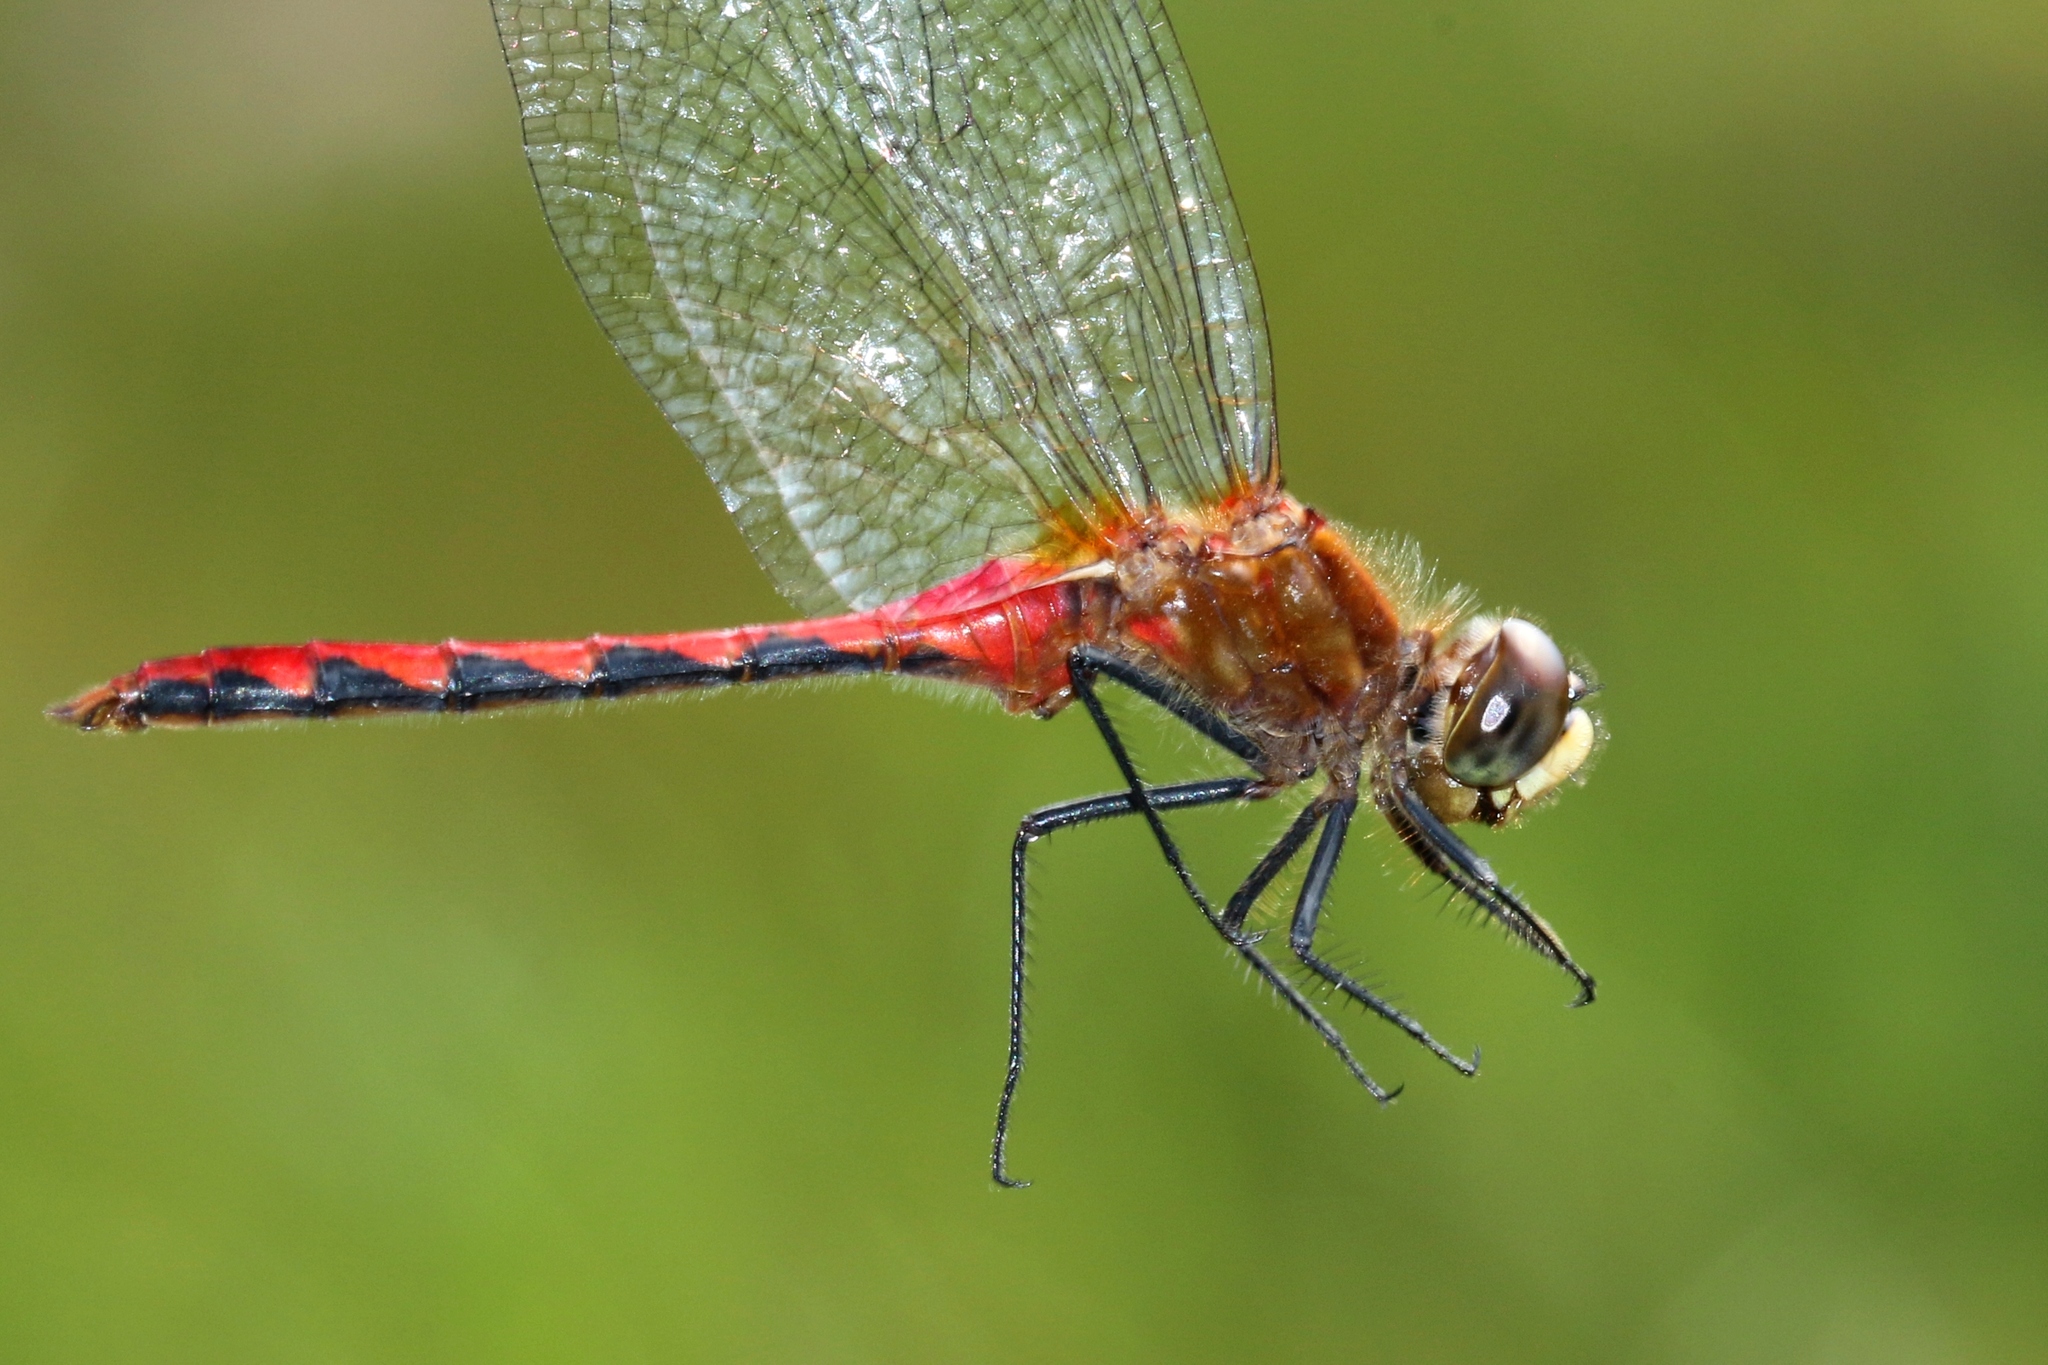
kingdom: Animalia
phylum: Arthropoda
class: Insecta
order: Odonata
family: Libellulidae
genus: Sympetrum
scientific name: Sympetrum obtrusum
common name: White-faced meadowhawk
